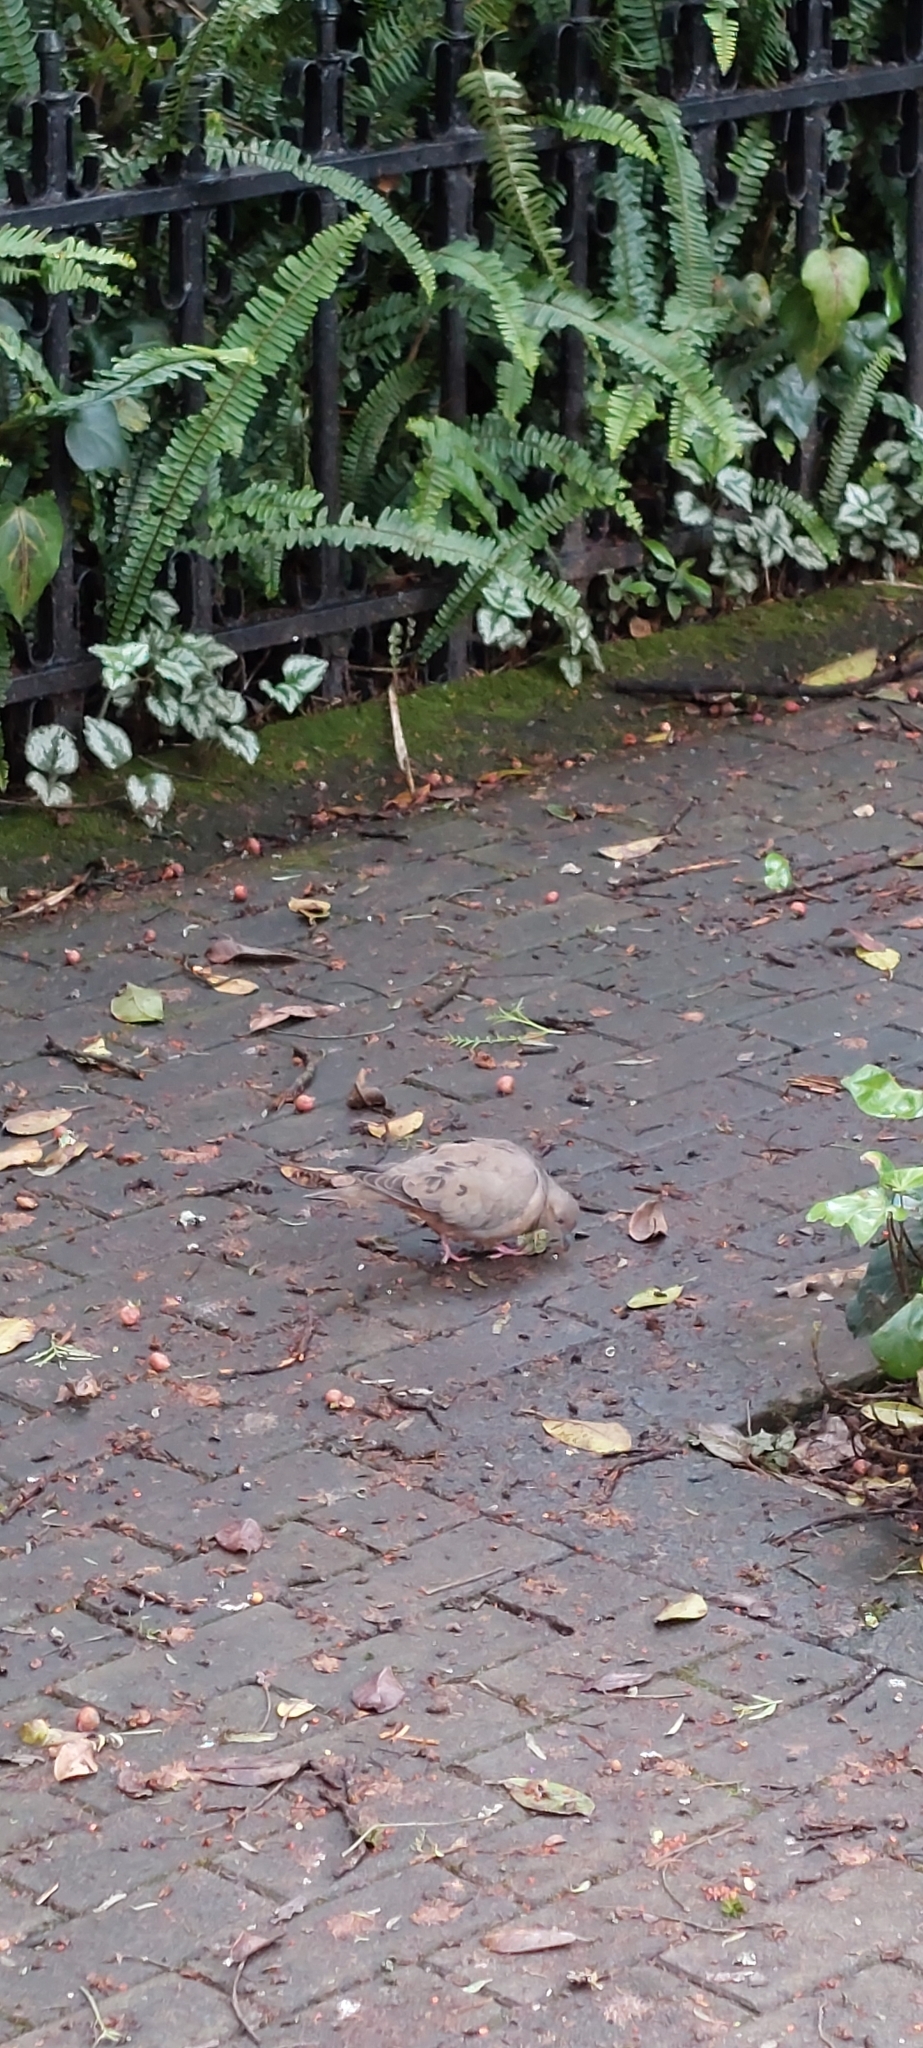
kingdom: Animalia
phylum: Chordata
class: Aves
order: Columbiformes
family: Columbidae
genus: Zenaida
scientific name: Zenaida auriculata
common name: Eared dove
